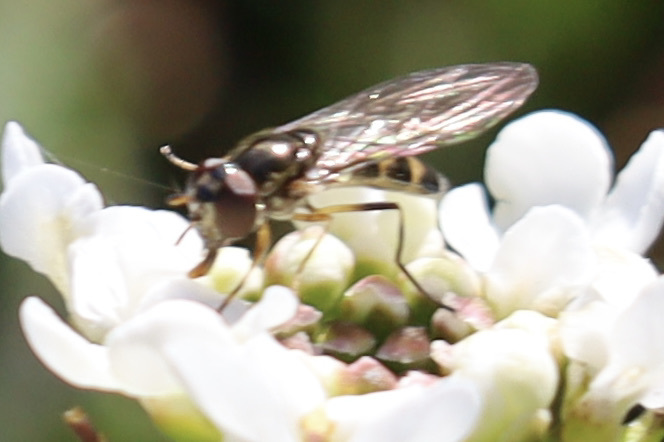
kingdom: Animalia
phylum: Arthropoda
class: Insecta
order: Diptera
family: Syrphidae
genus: Melanostoma
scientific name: Melanostoma mellina
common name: Hover fly
